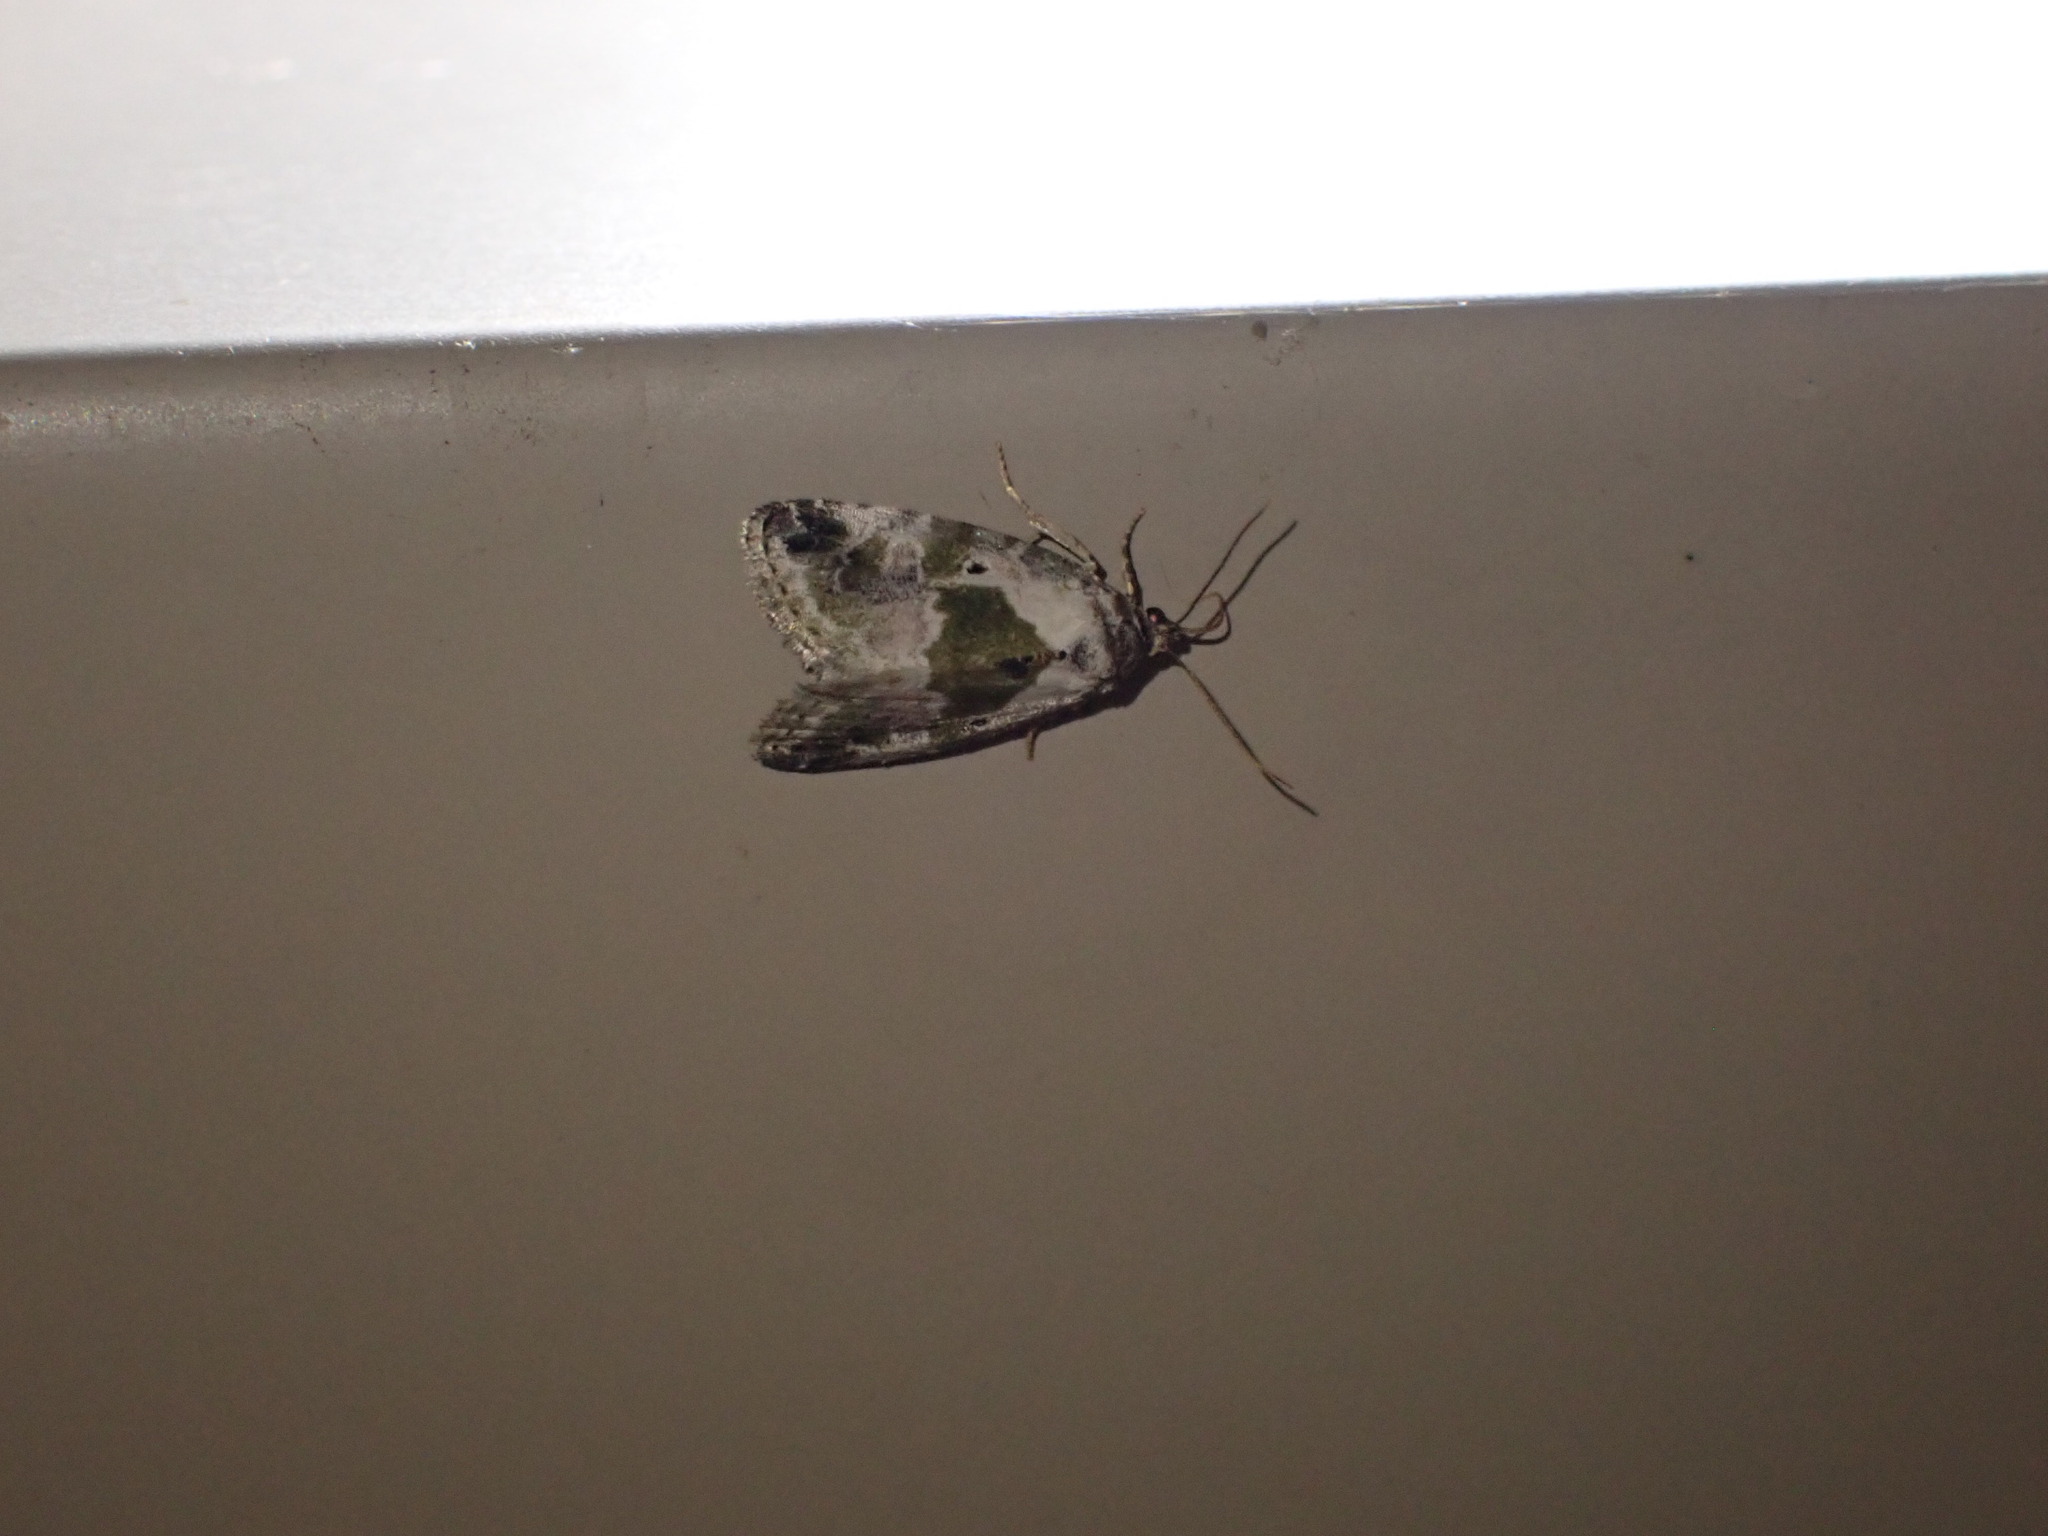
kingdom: Animalia
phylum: Arthropoda
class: Insecta
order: Lepidoptera
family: Noctuidae
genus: Maliattha
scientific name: Maliattha synochitis
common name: Black-dotted glyph
